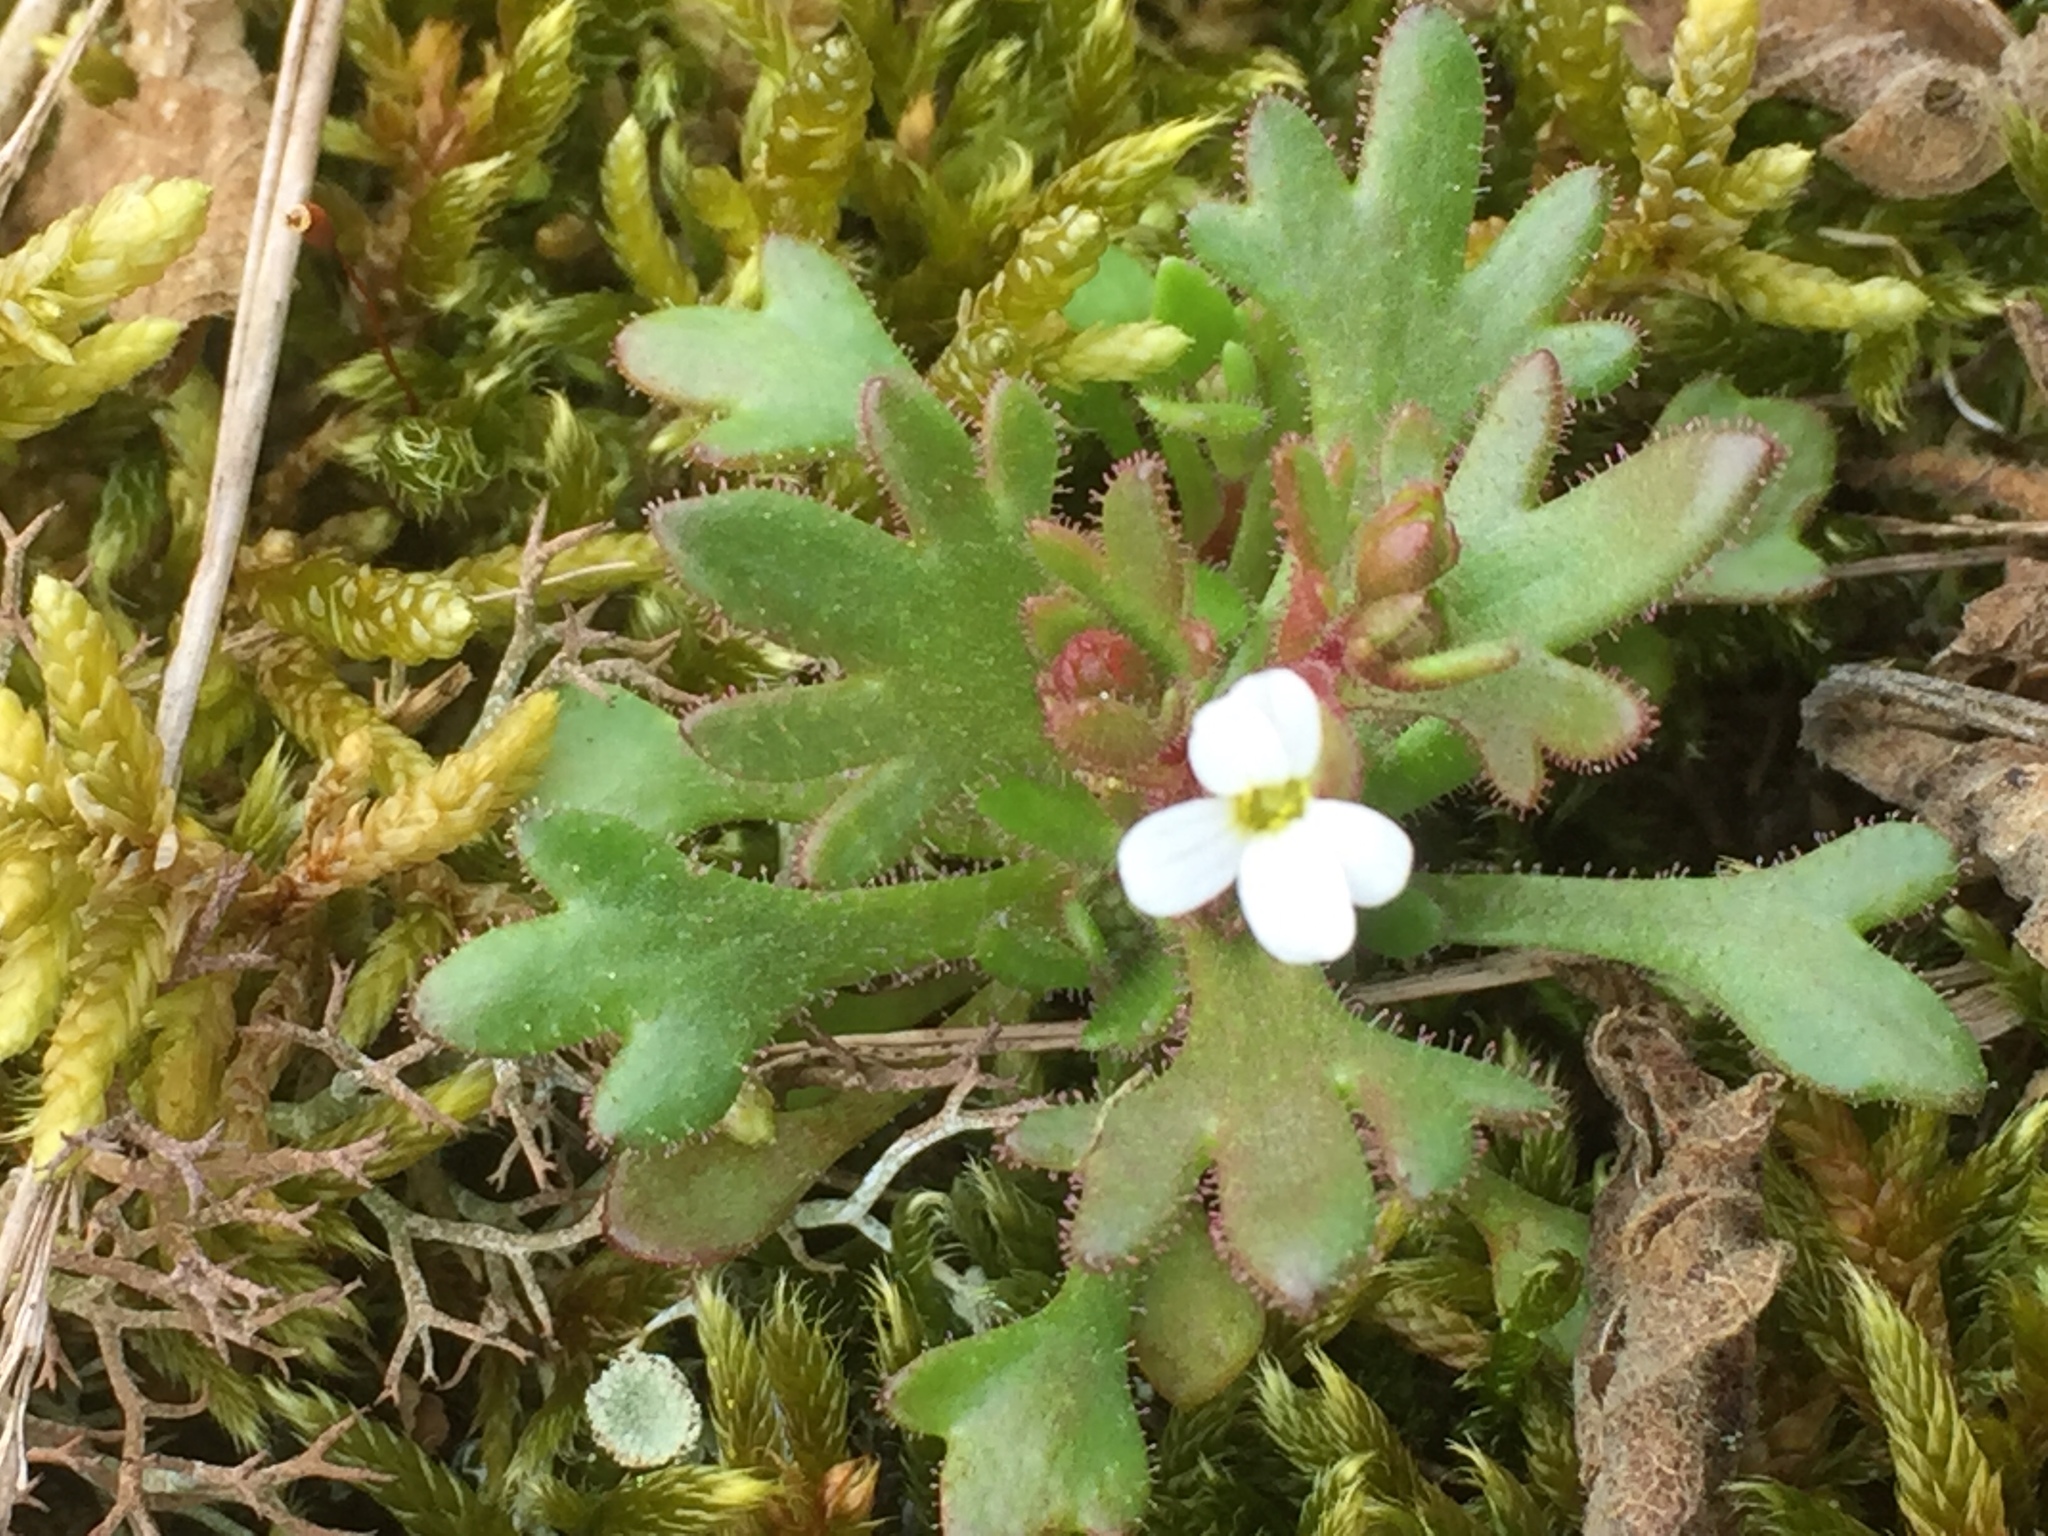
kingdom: Plantae
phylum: Tracheophyta
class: Magnoliopsida
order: Saxifragales
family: Saxifragaceae
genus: Saxifraga
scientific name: Saxifraga tridactylites
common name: Rue-leaved saxifrage
